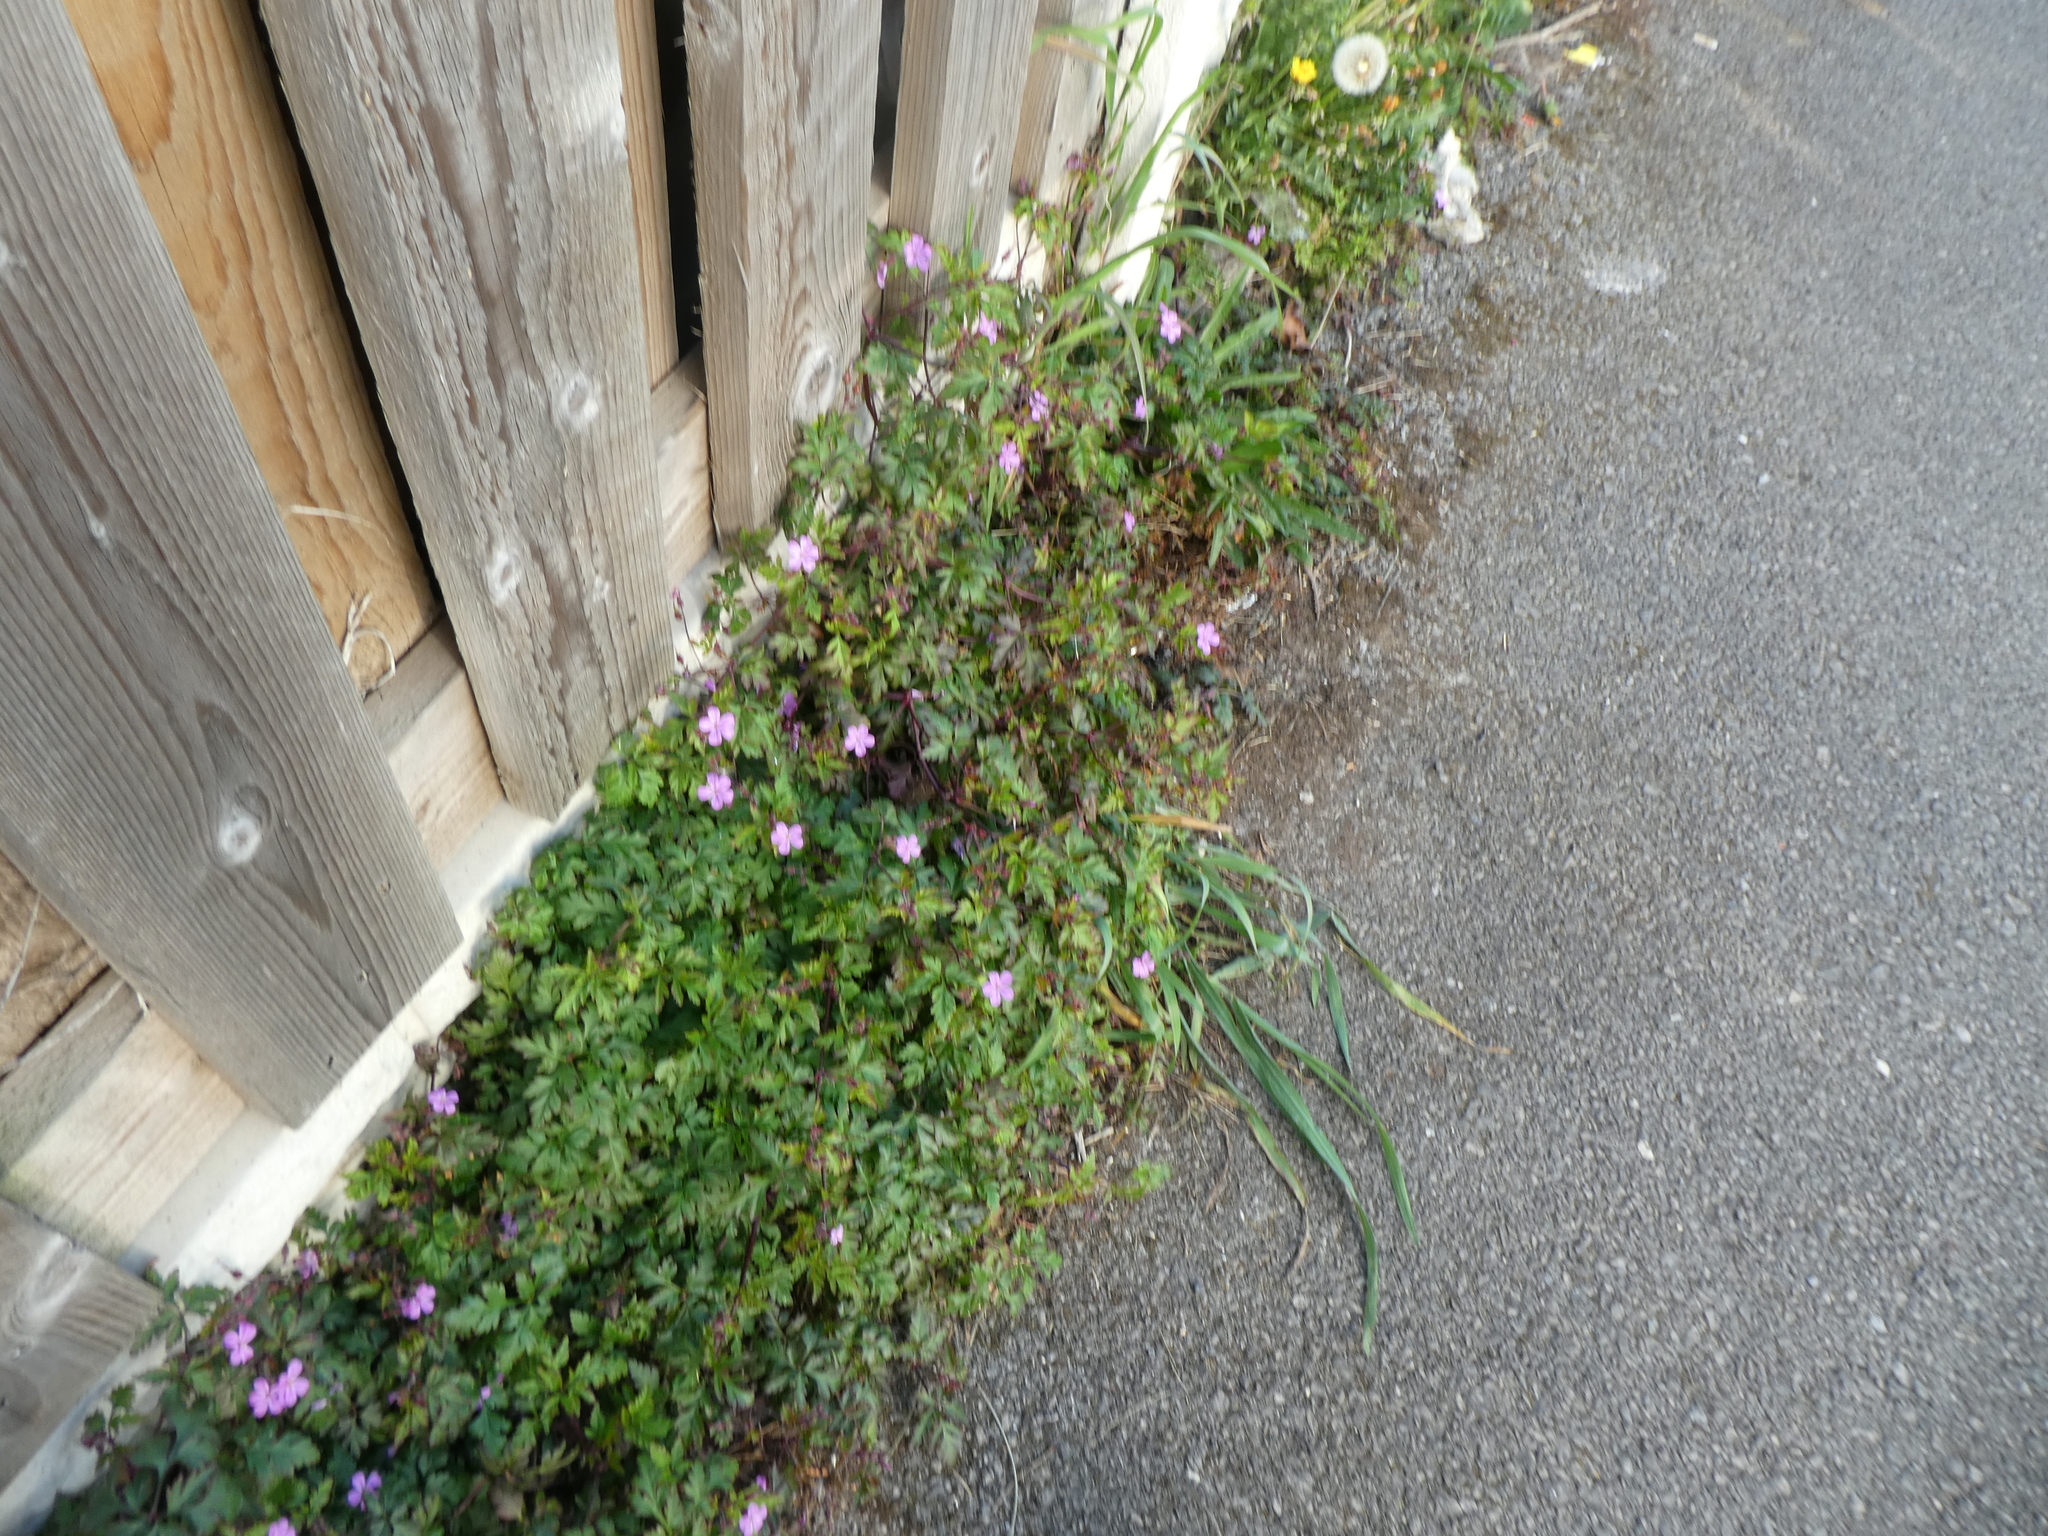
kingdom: Plantae
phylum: Tracheophyta
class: Magnoliopsida
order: Geraniales
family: Geraniaceae
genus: Geranium
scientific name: Geranium robertianum
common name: Herb-robert
